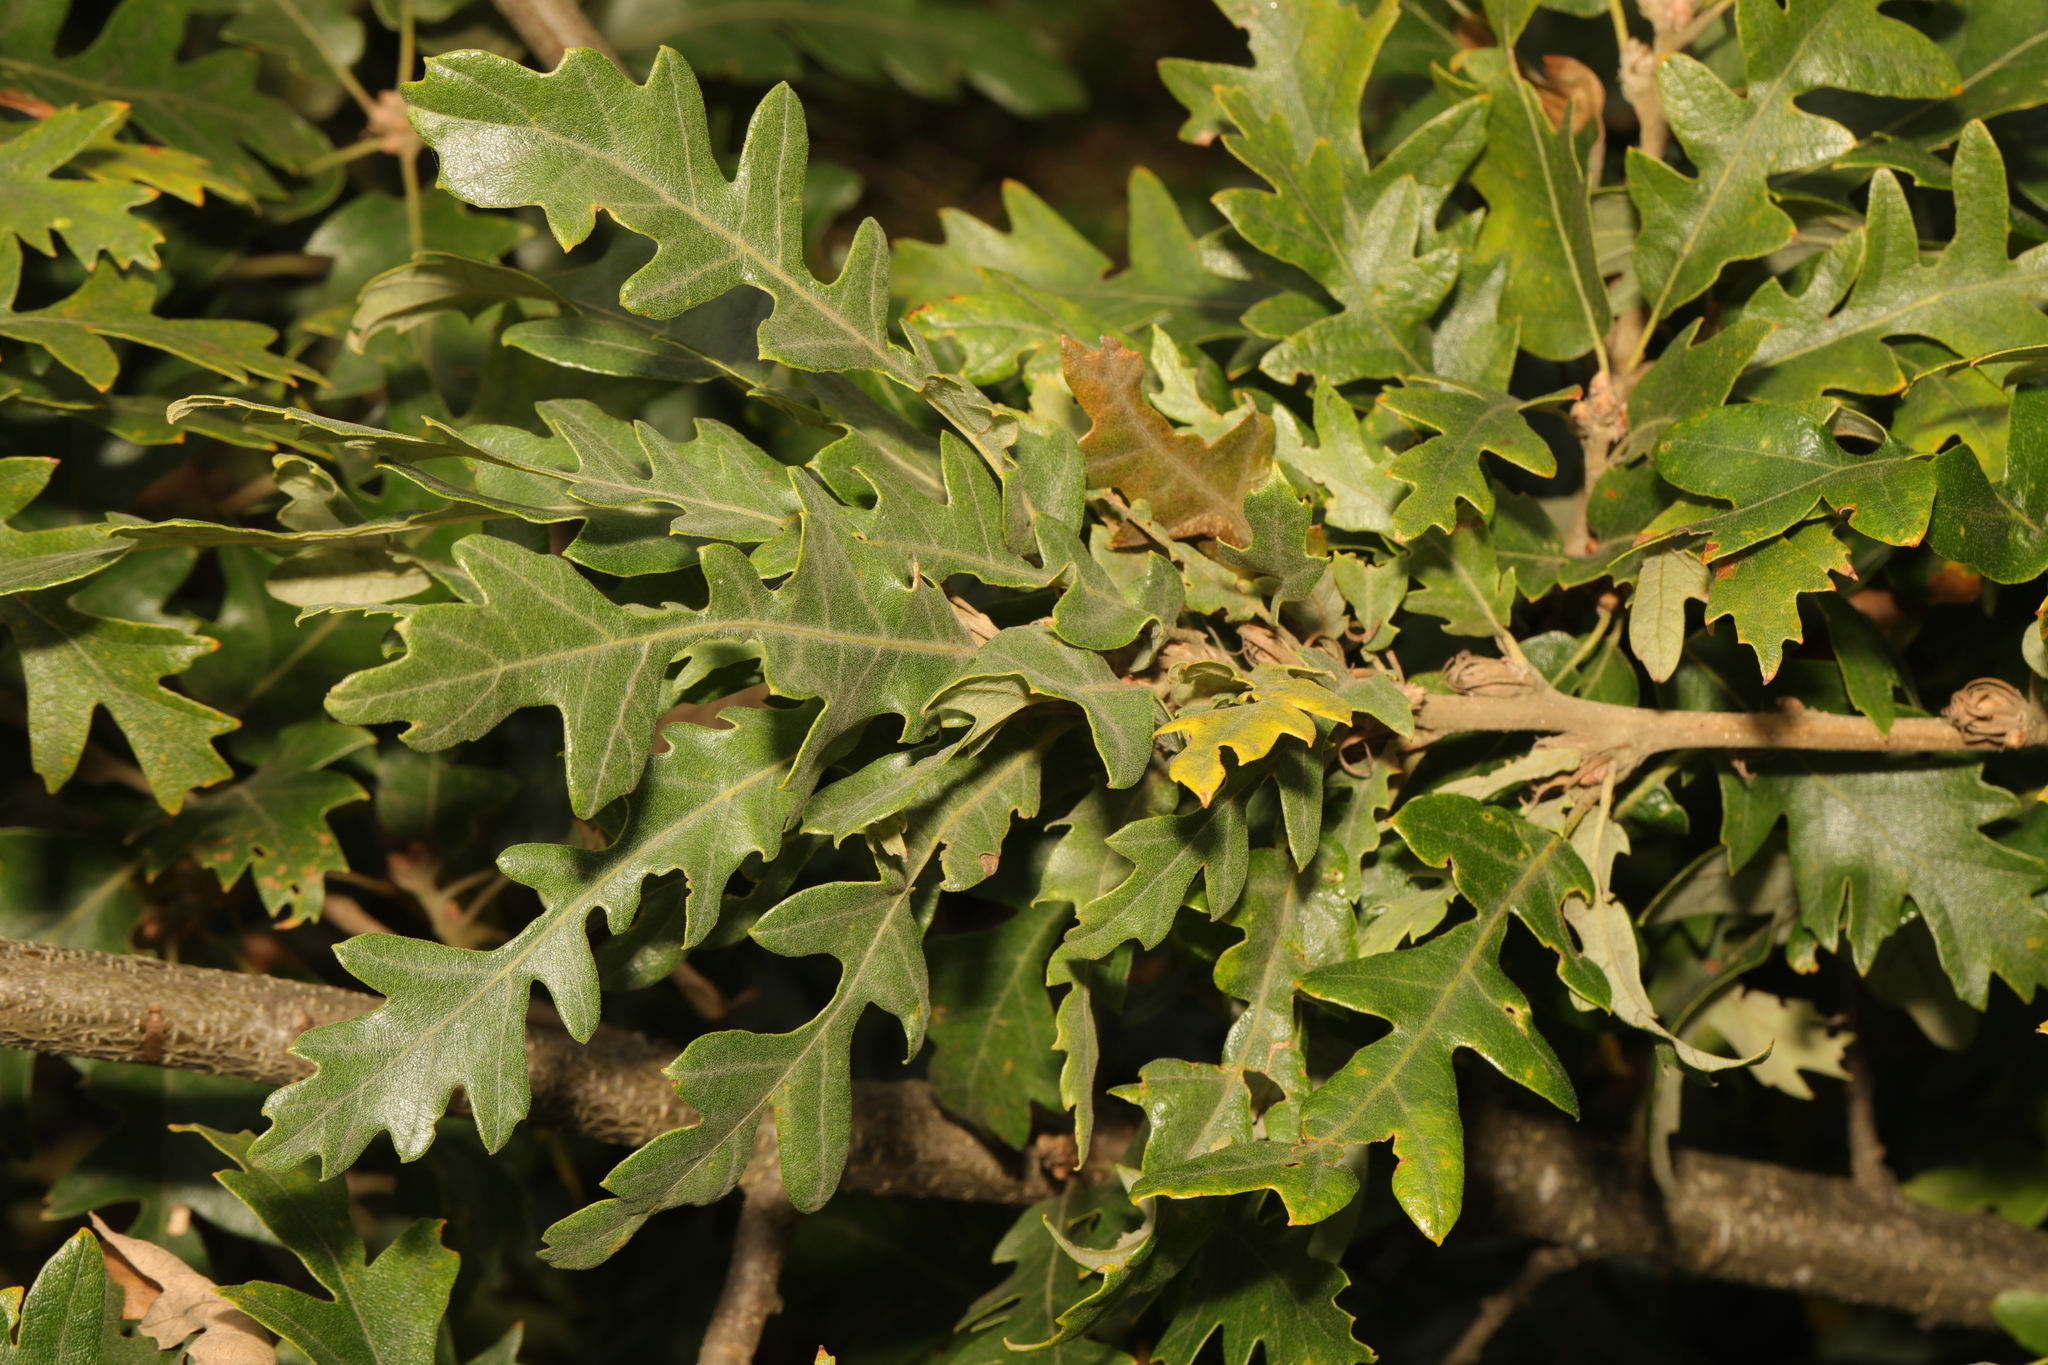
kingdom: Plantae
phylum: Tracheophyta
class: Magnoliopsida
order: Fagales
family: Fagaceae
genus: Quercus
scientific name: Quercus cerris
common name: Turkey oak
